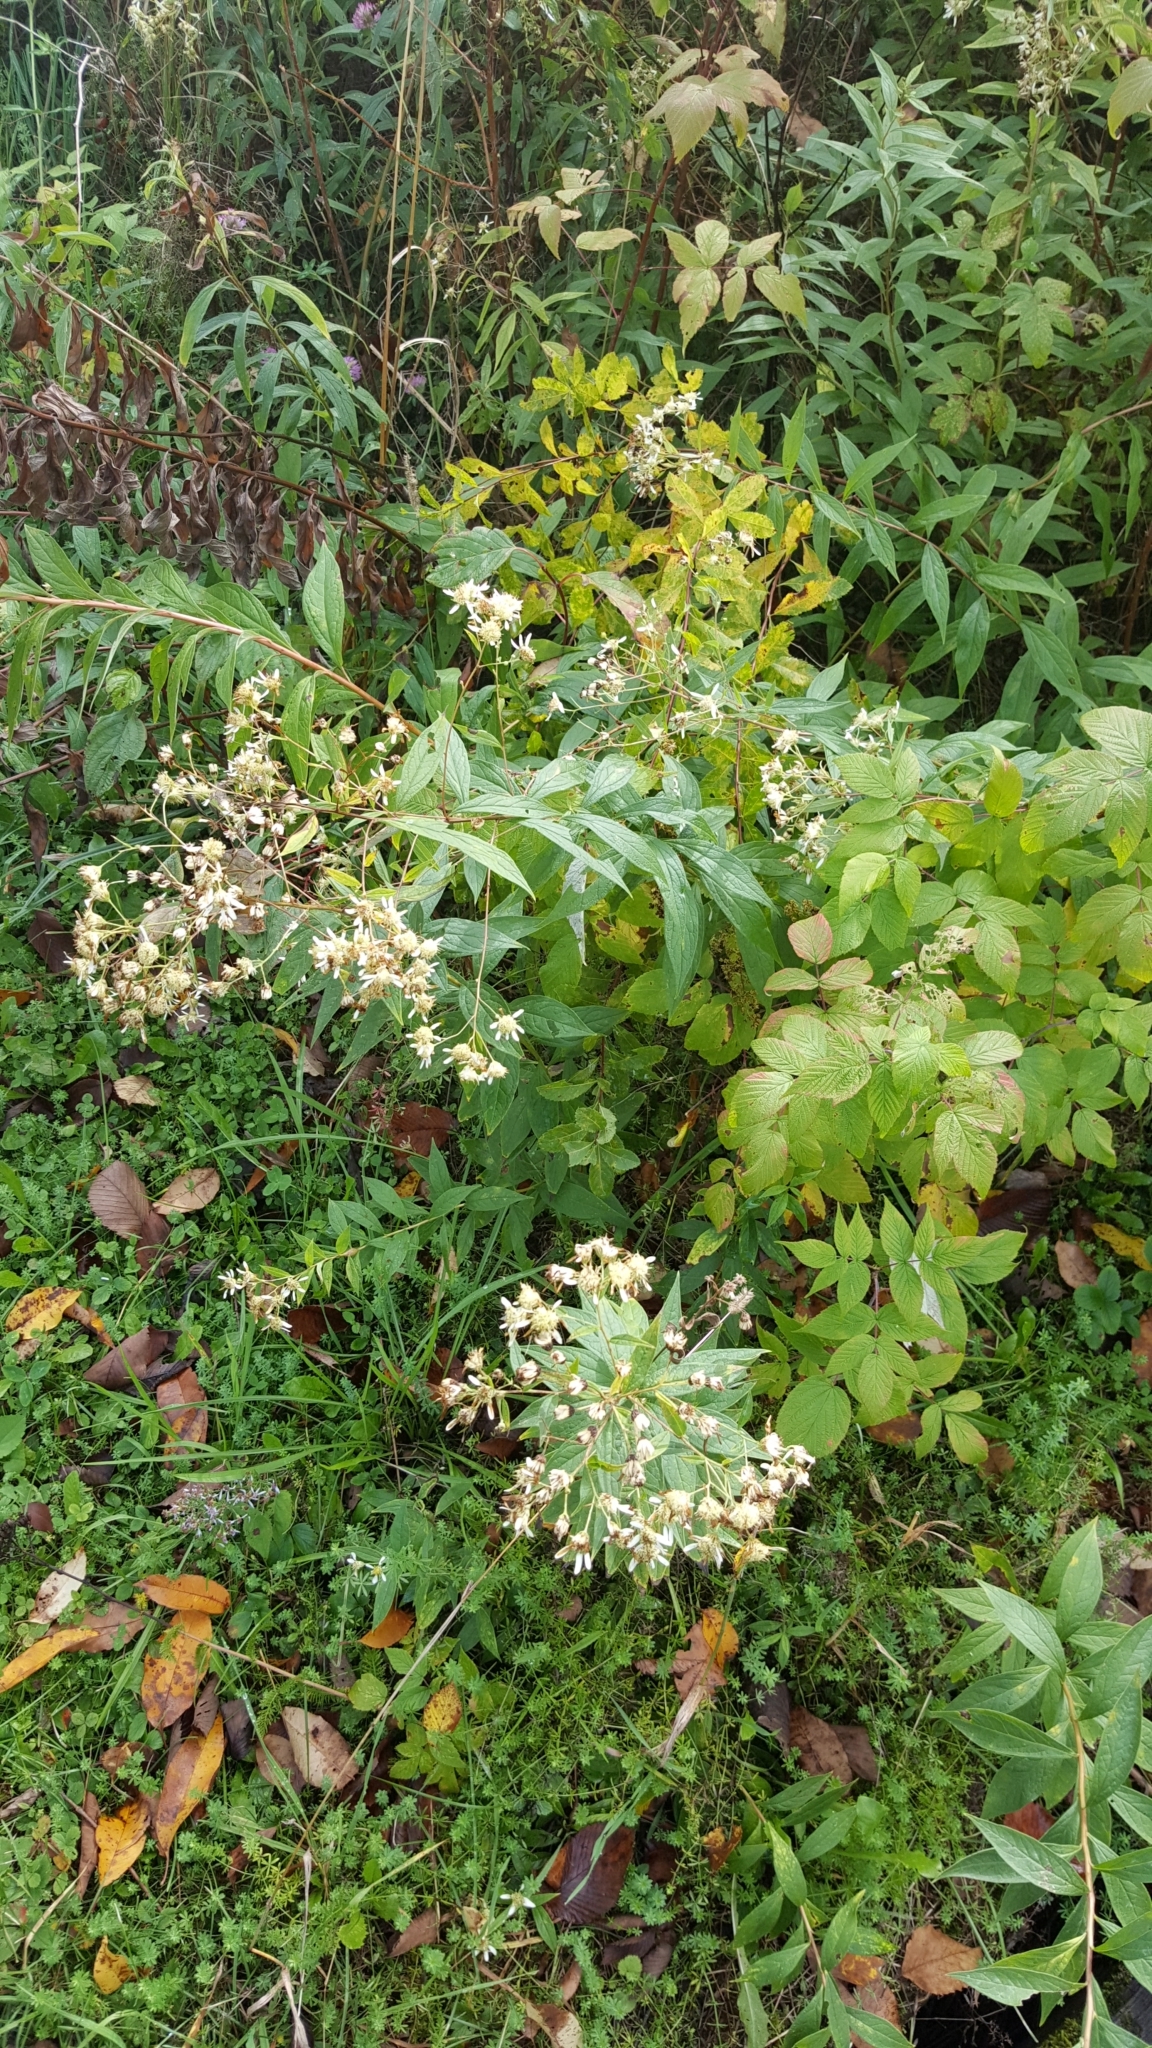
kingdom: Plantae
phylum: Tracheophyta
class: Magnoliopsida
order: Asterales
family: Asteraceae
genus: Doellingeria
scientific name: Doellingeria umbellata
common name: Flat-top white aster
